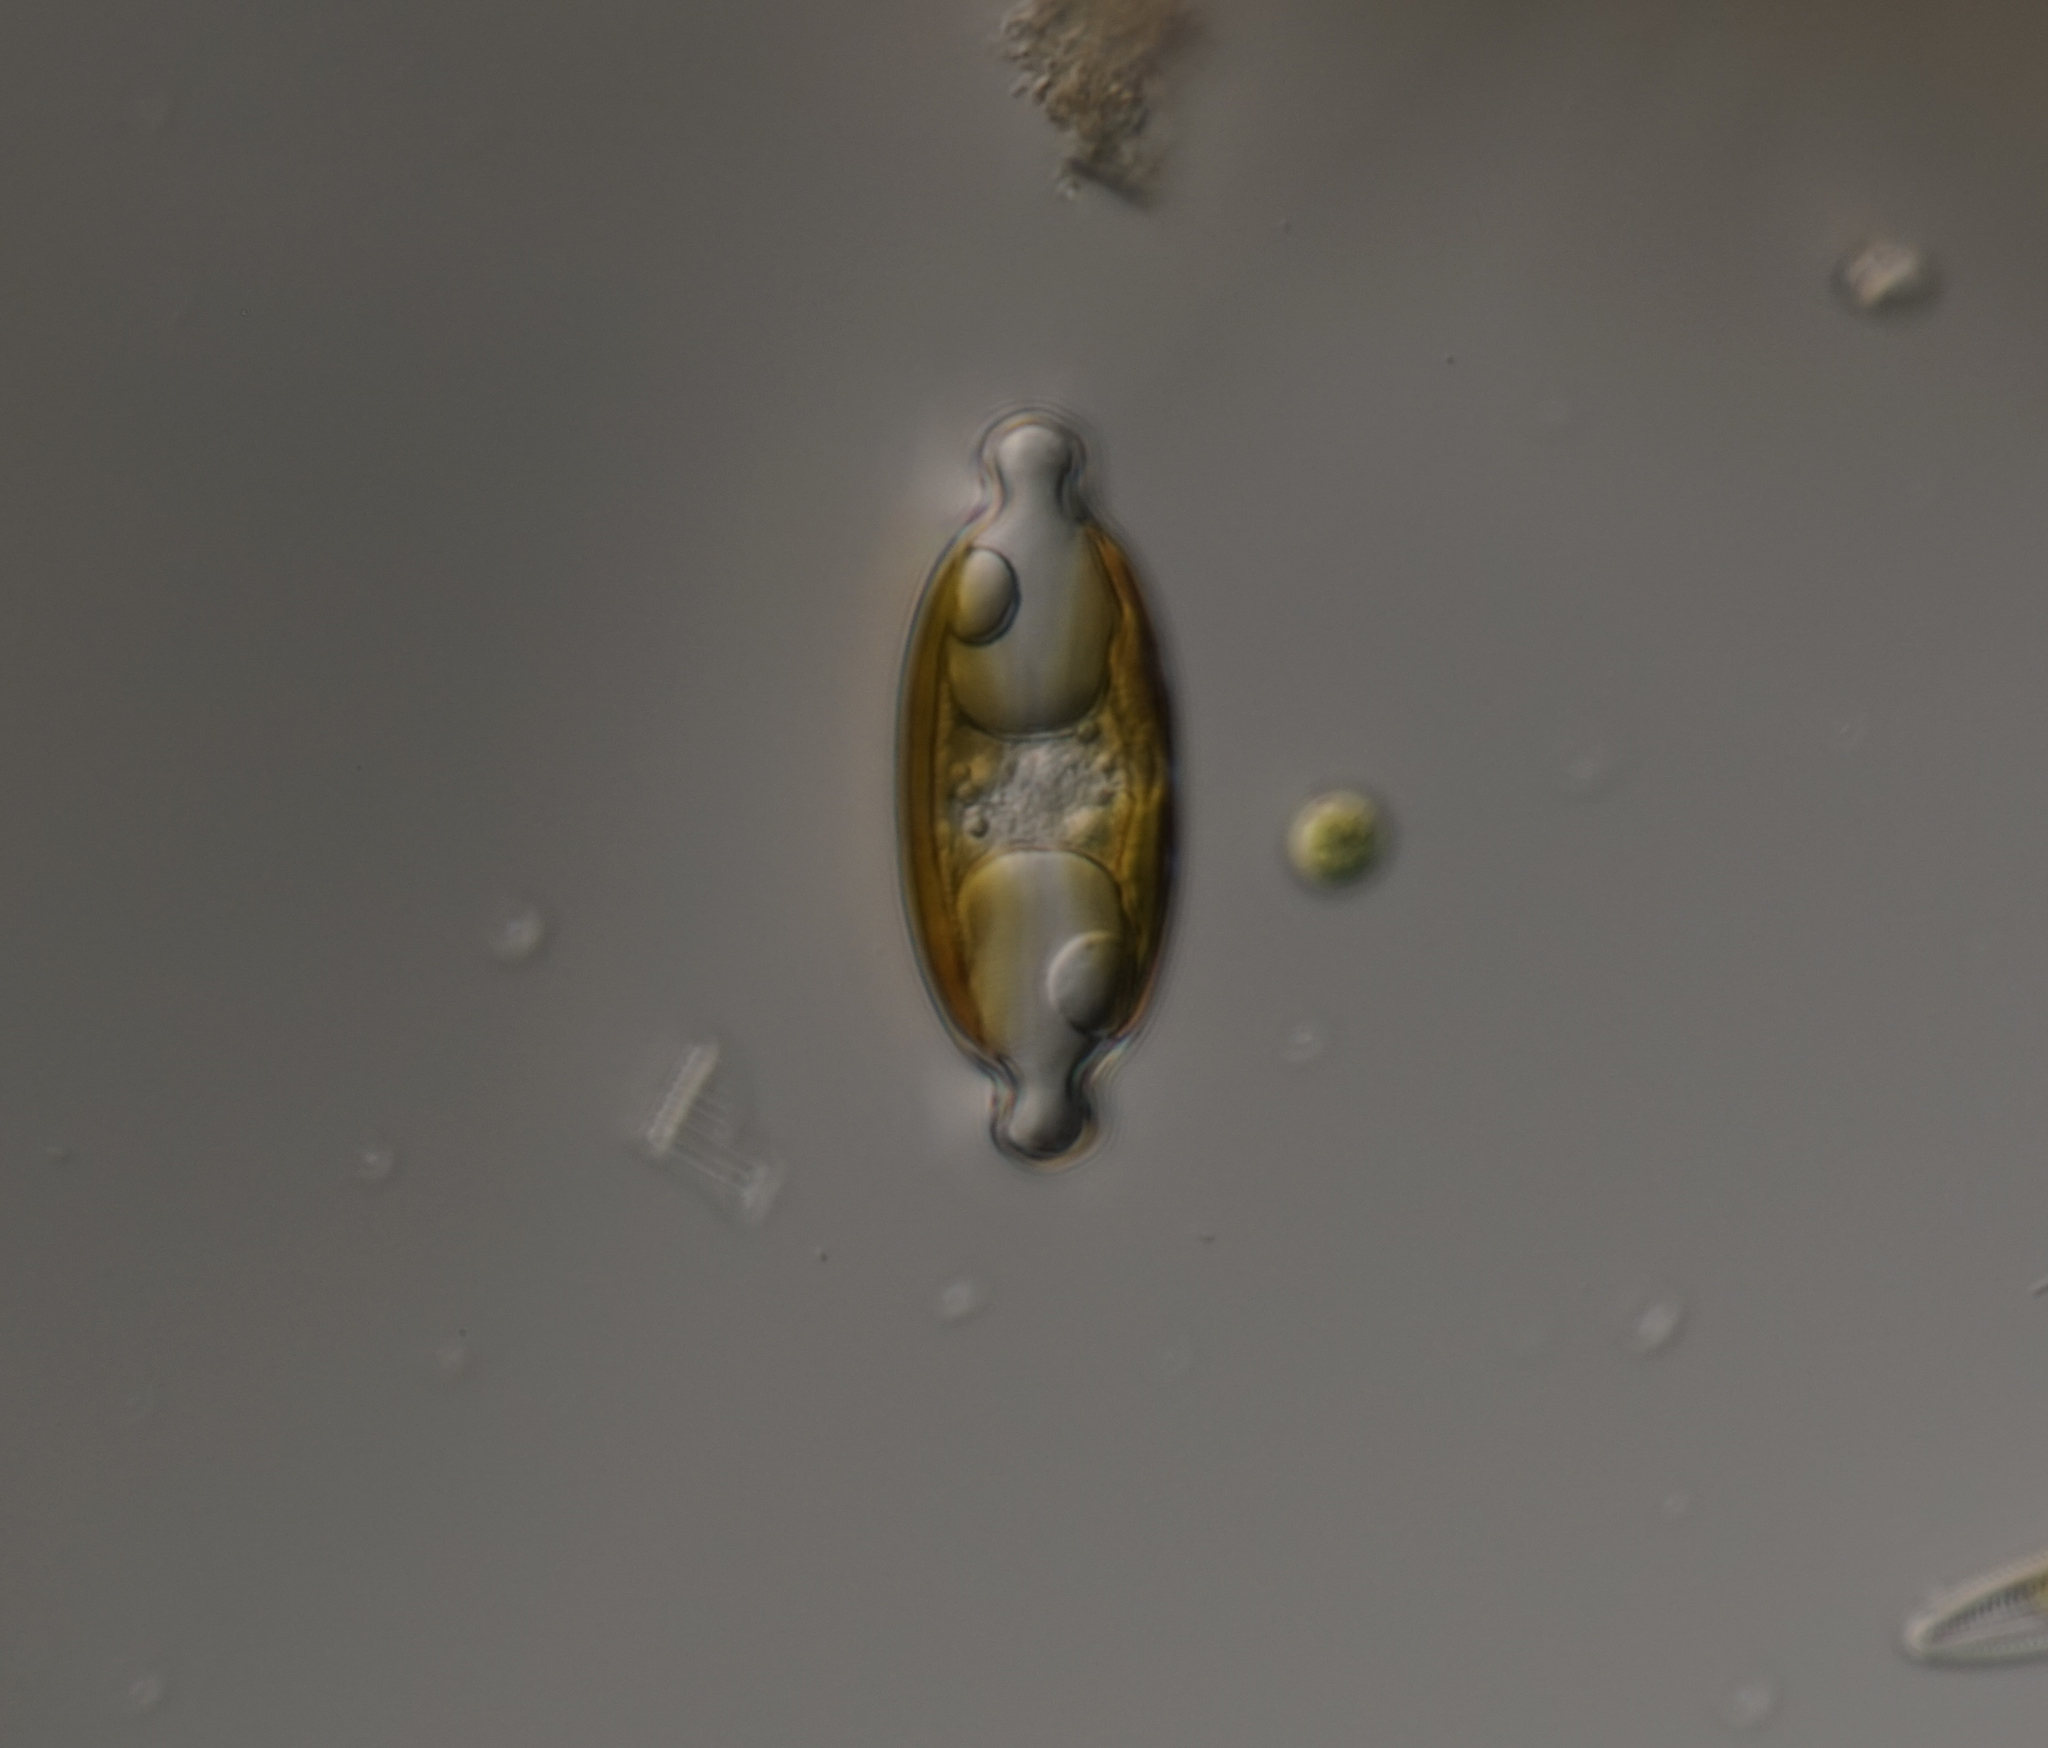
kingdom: Chromista
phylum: Ochrophyta
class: Bacillariophyceae
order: Naviculales
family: Naviculaceae
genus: Caloneis
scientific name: Caloneis amphisbaena
